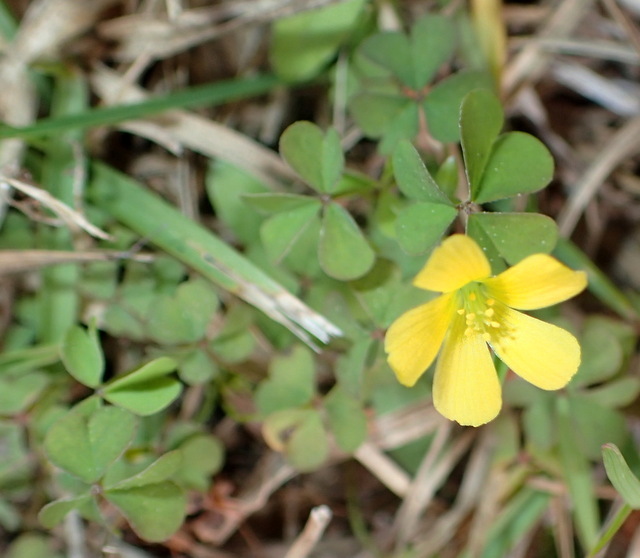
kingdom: Plantae
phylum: Tracheophyta
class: Magnoliopsida
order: Oxalidales
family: Oxalidaceae
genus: Oxalis
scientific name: Oxalis corniculata
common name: Procumbent yellow-sorrel
